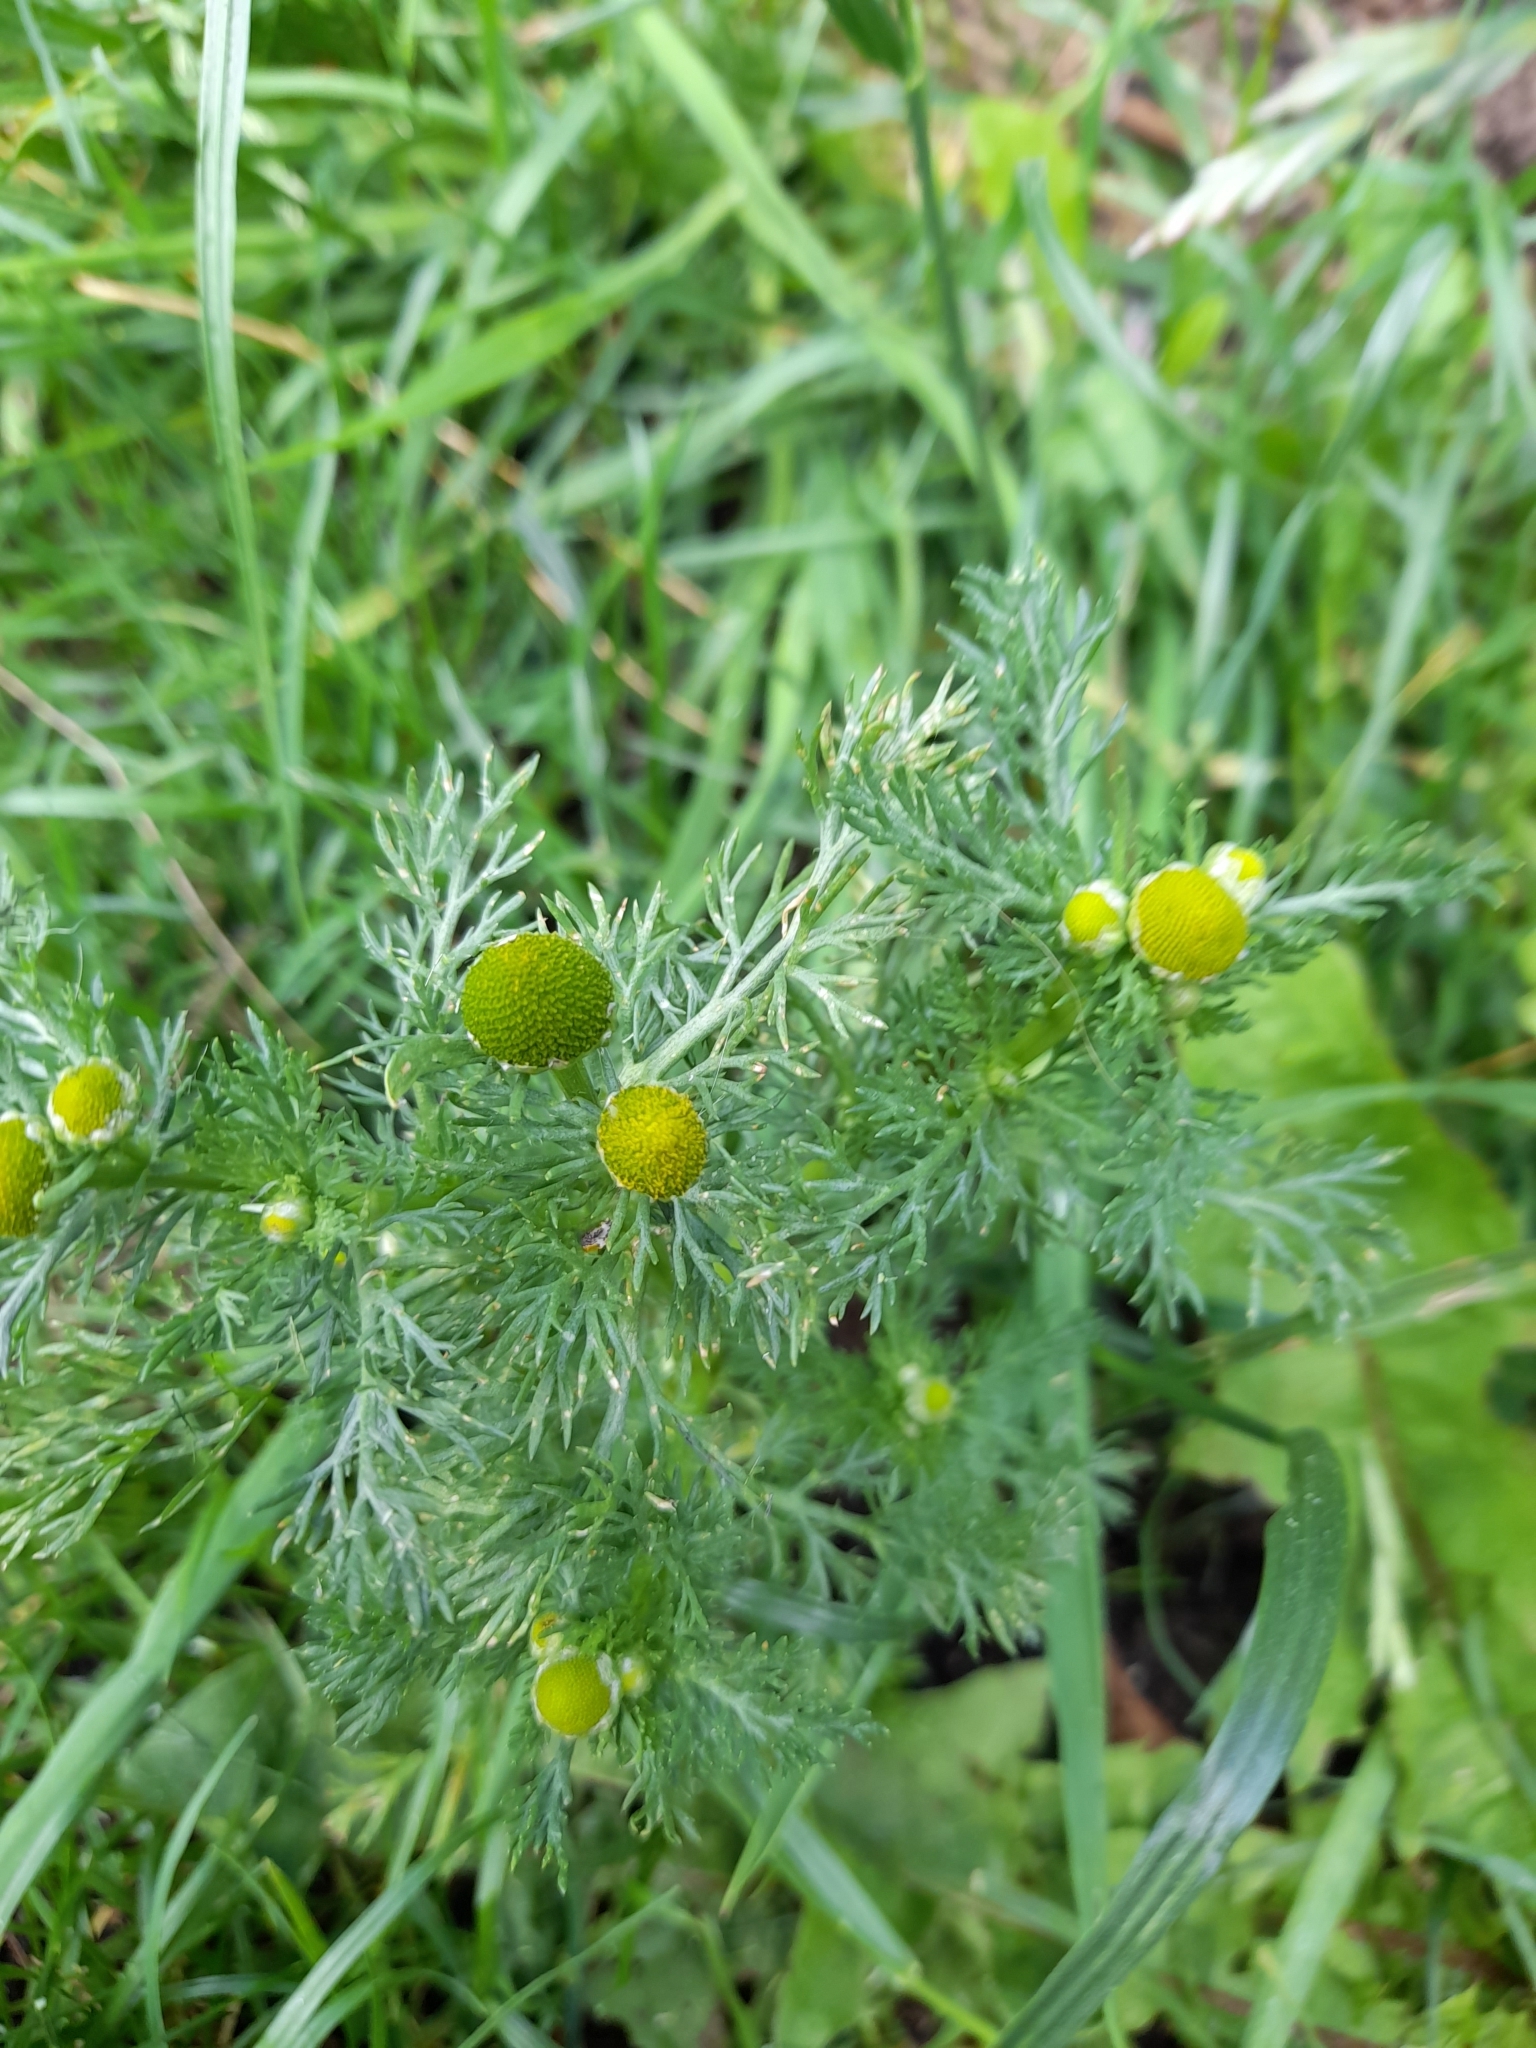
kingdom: Plantae
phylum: Tracheophyta
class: Magnoliopsida
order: Asterales
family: Asteraceae
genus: Matricaria
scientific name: Matricaria discoidea
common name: Disc mayweed
